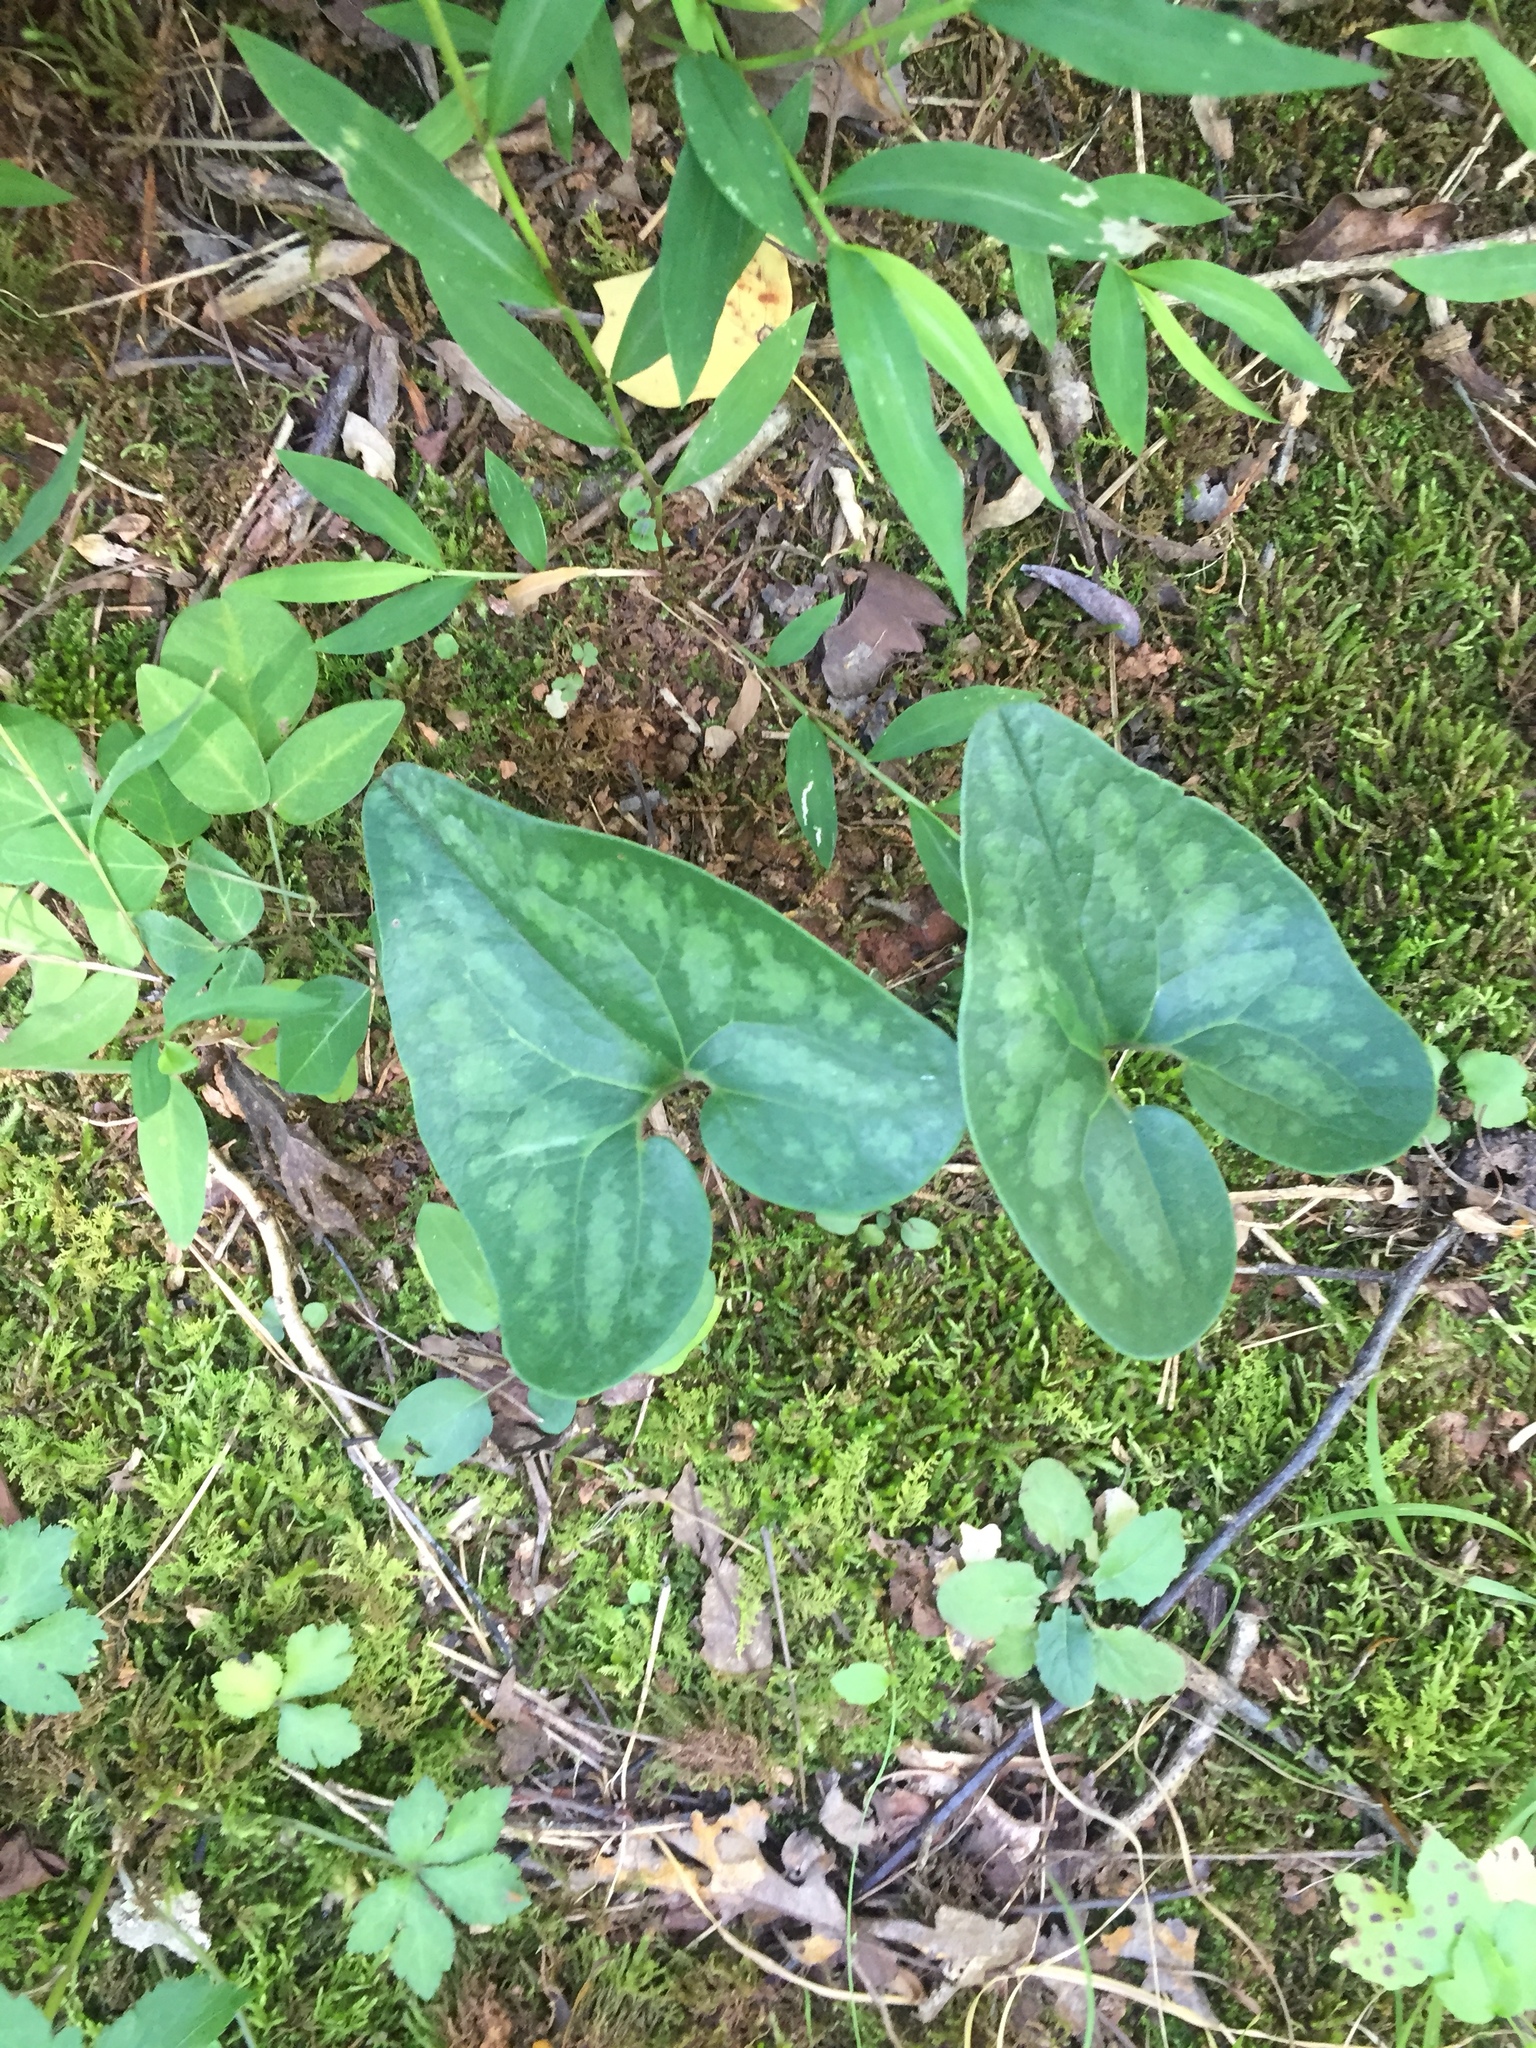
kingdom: Plantae
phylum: Tracheophyta
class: Magnoliopsida
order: Piperales
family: Aristolochiaceae
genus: Hexastylis
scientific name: Hexastylis arifolia
